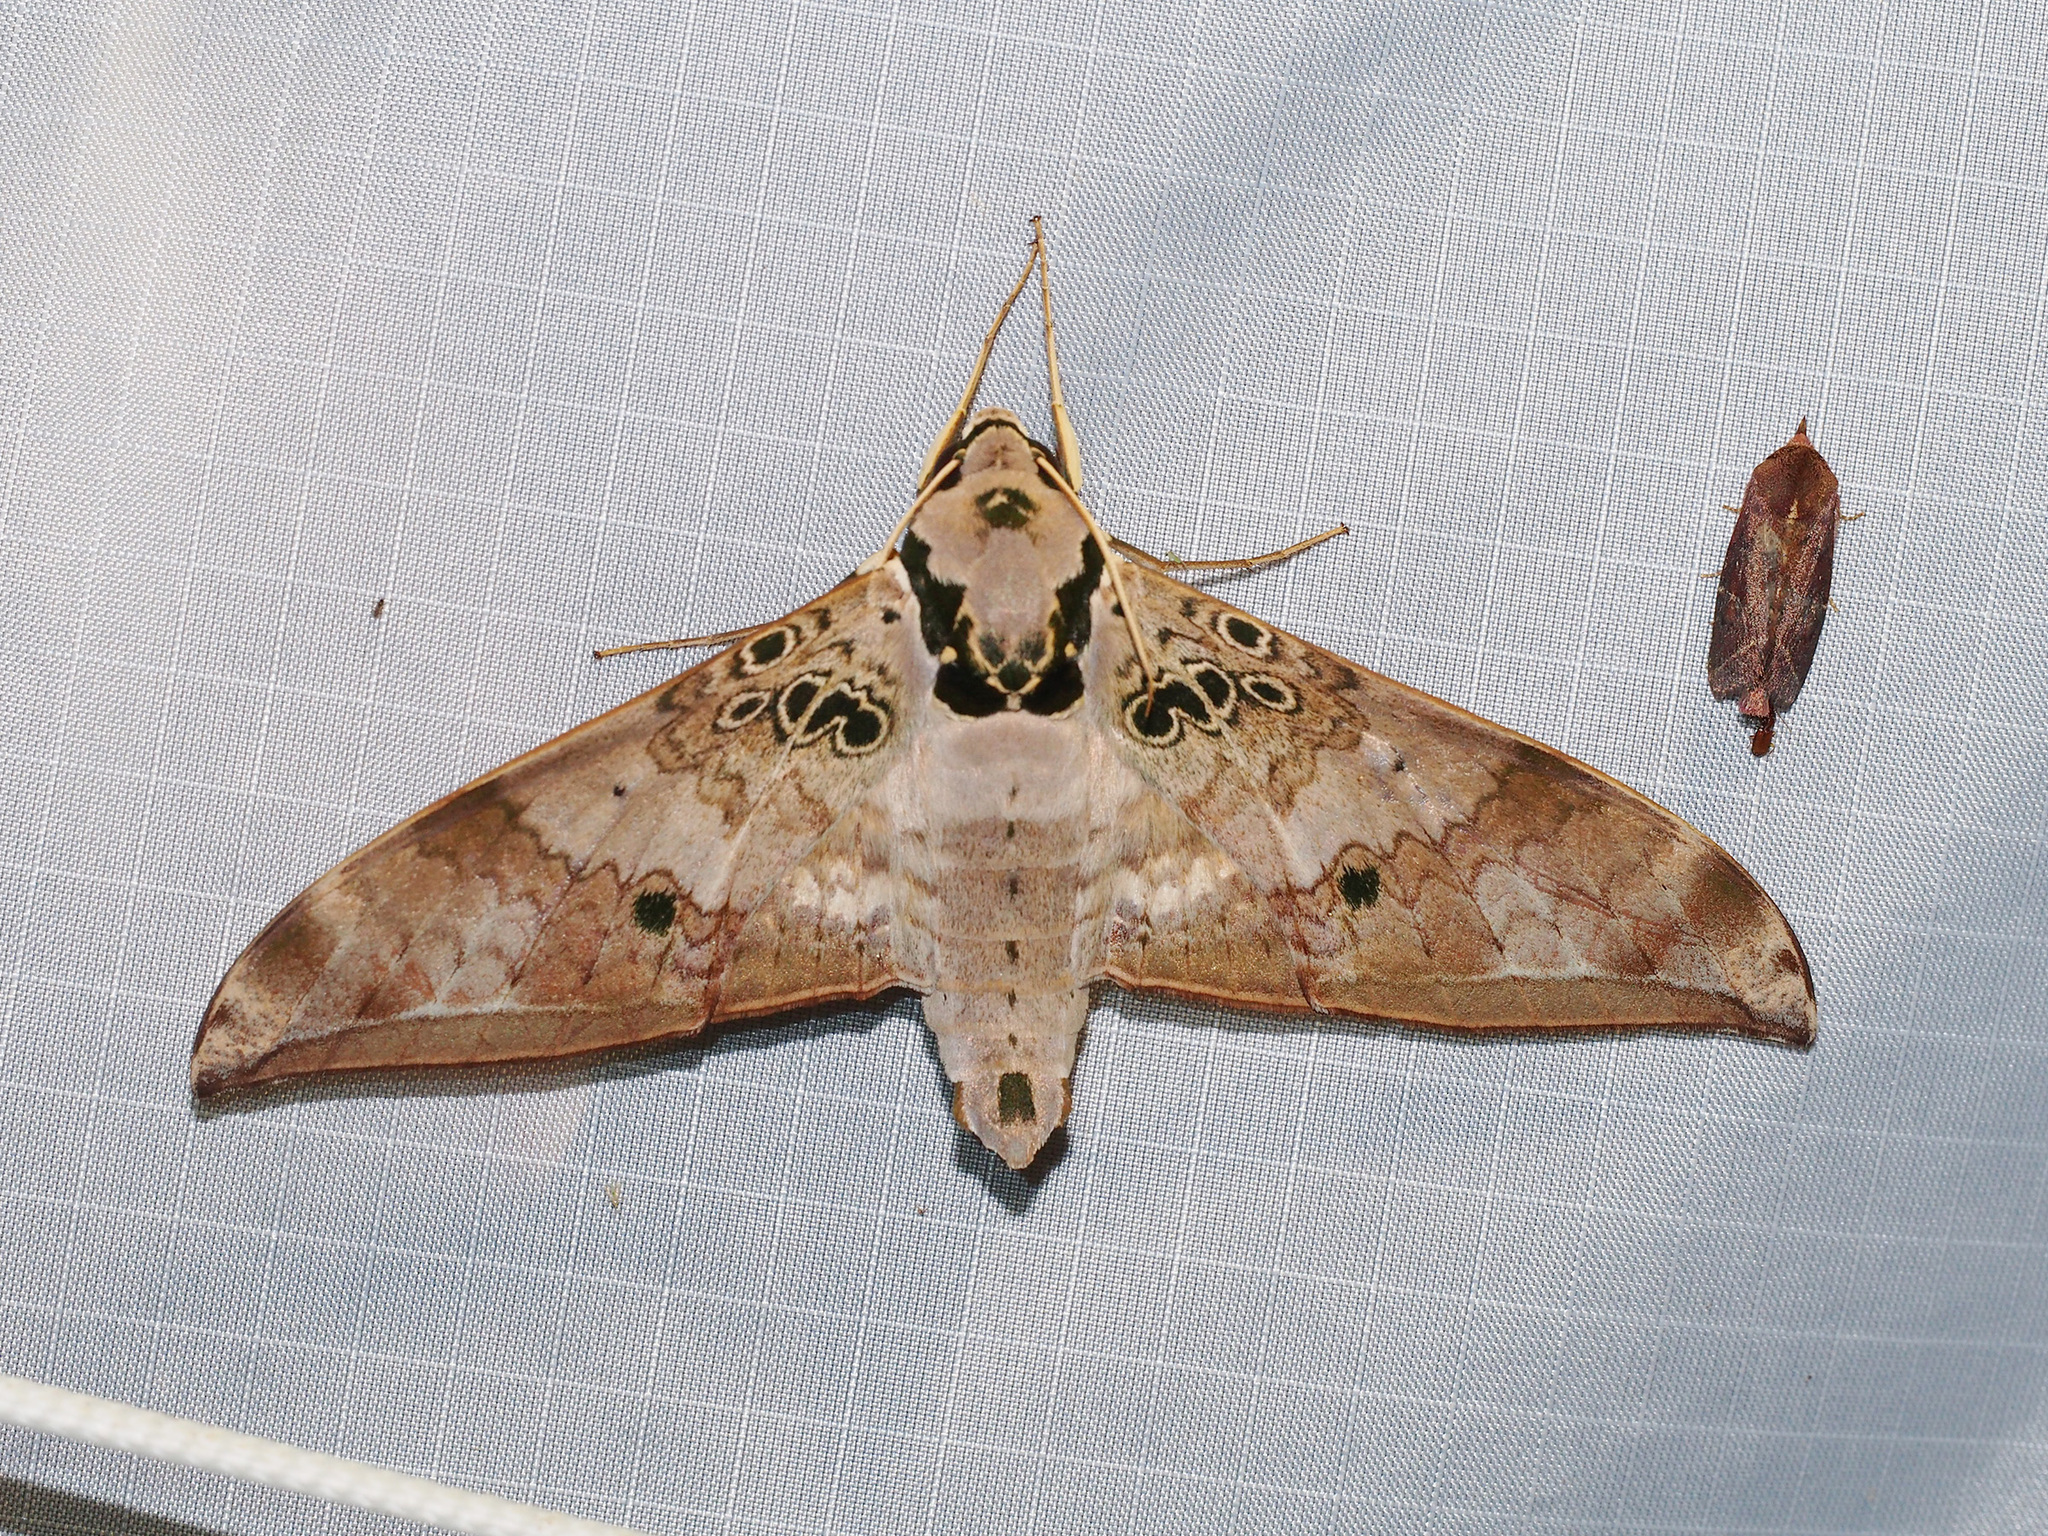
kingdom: Animalia
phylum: Arthropoda
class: Insecta
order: Lepidoptera
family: Sphingidae
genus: Ambulyx
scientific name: Ambulyx canescens
